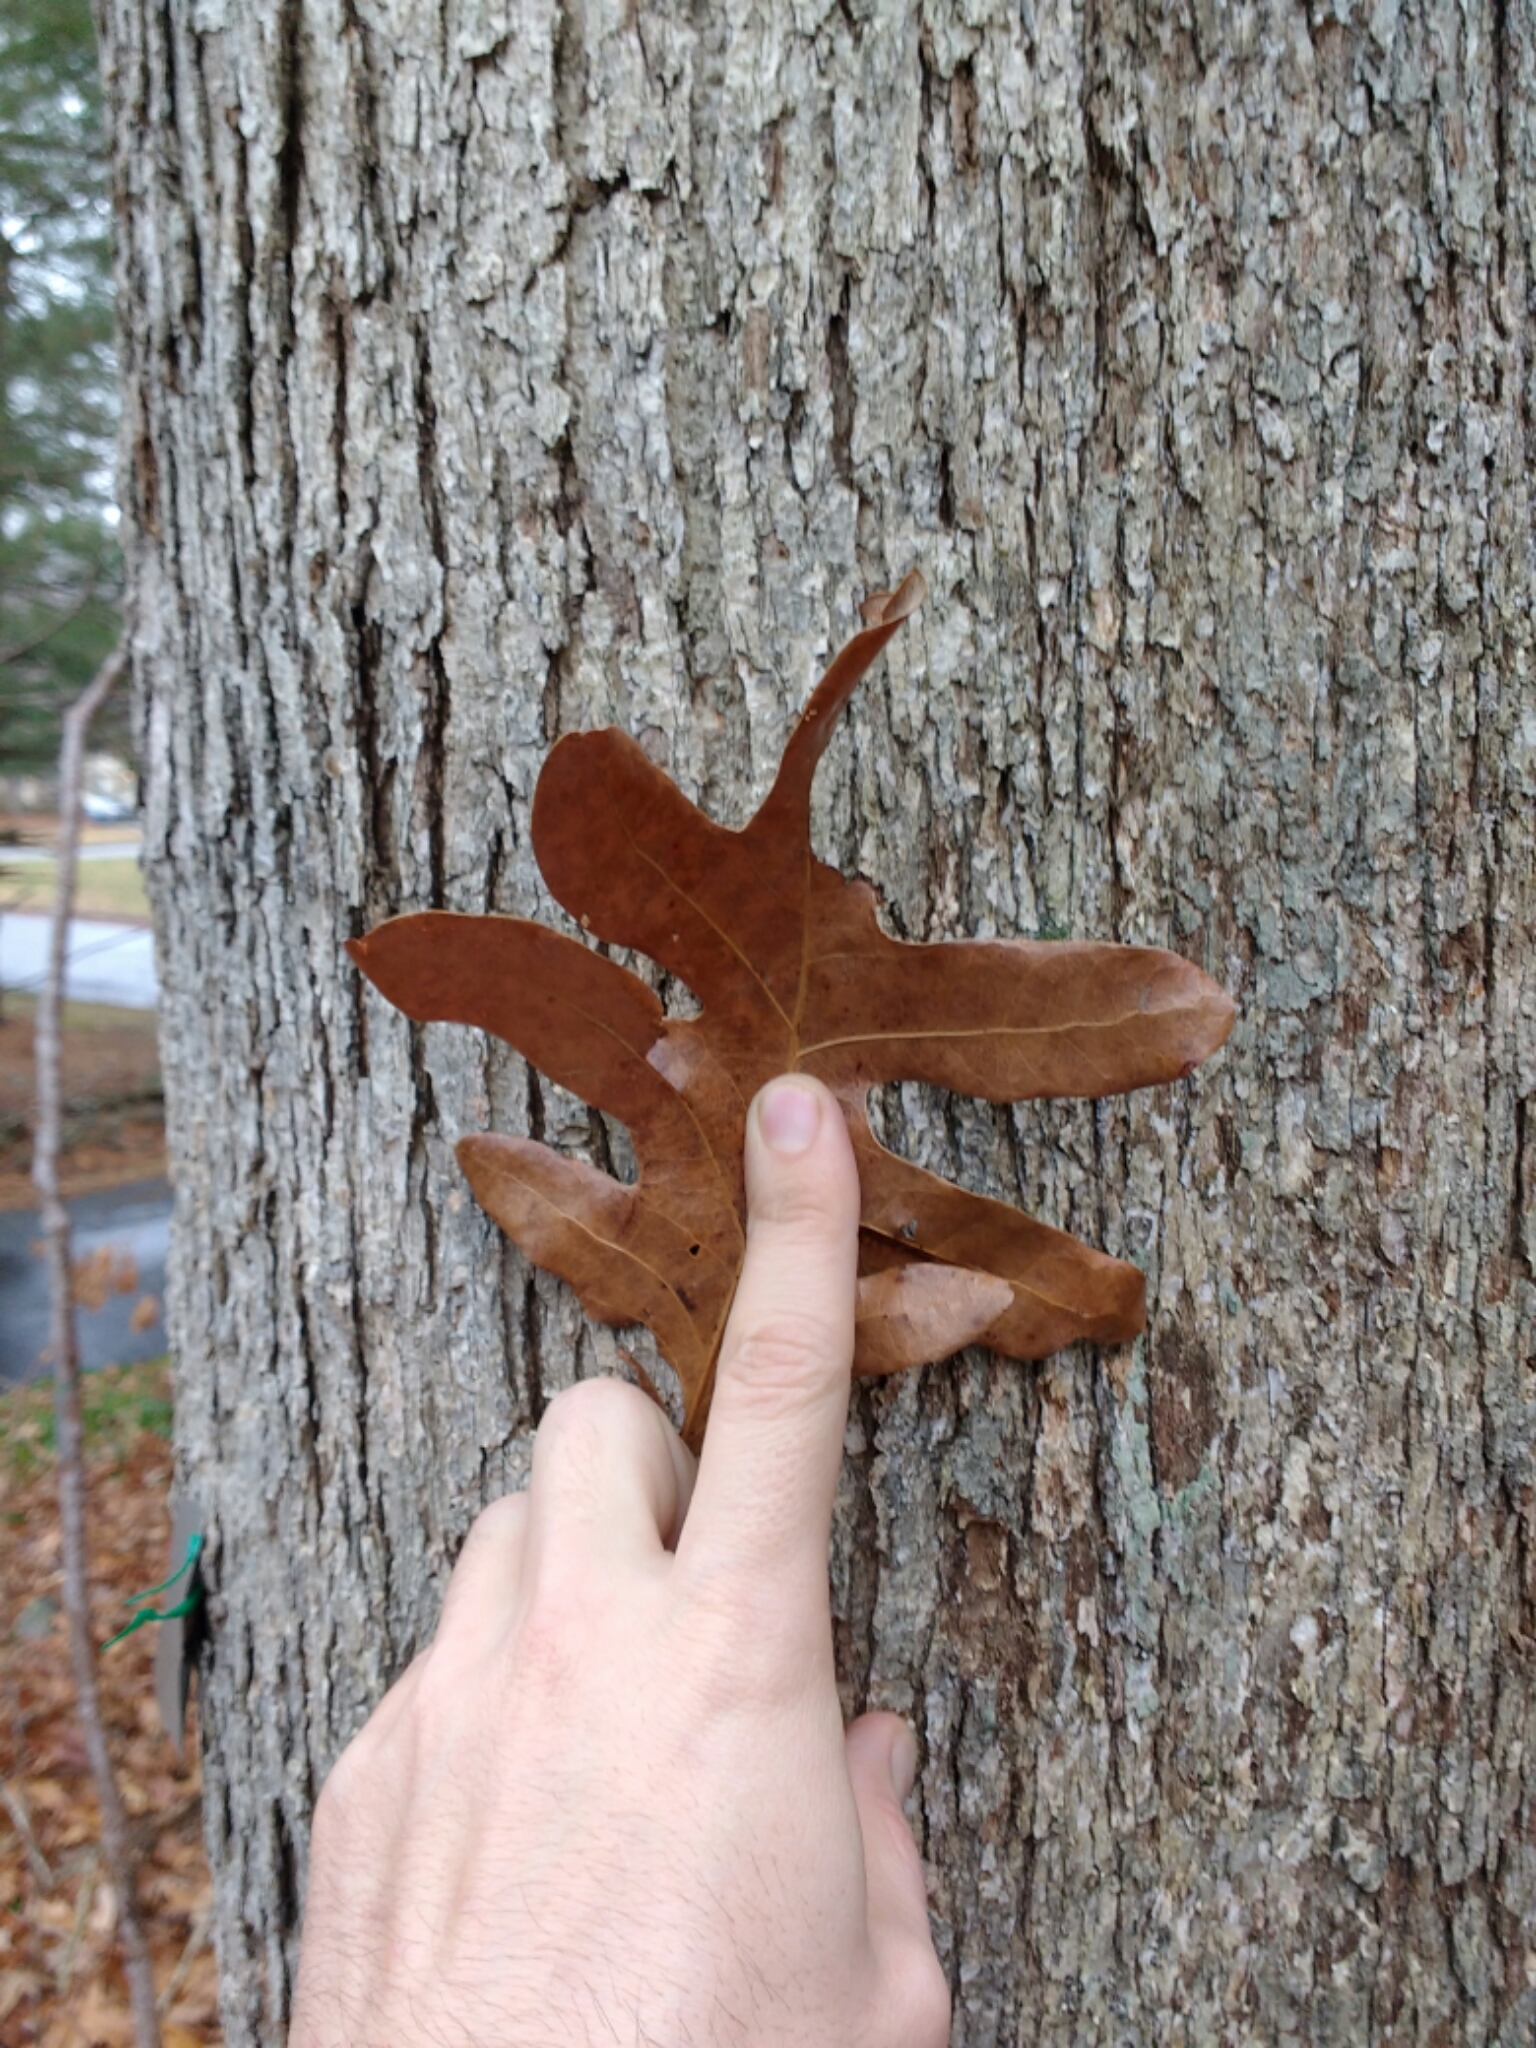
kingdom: Plantae
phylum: Tracheophyta
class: Magnoliopsida
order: Fagales
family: Fagaceae
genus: Quercus
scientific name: Quercus alba
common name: White oak
